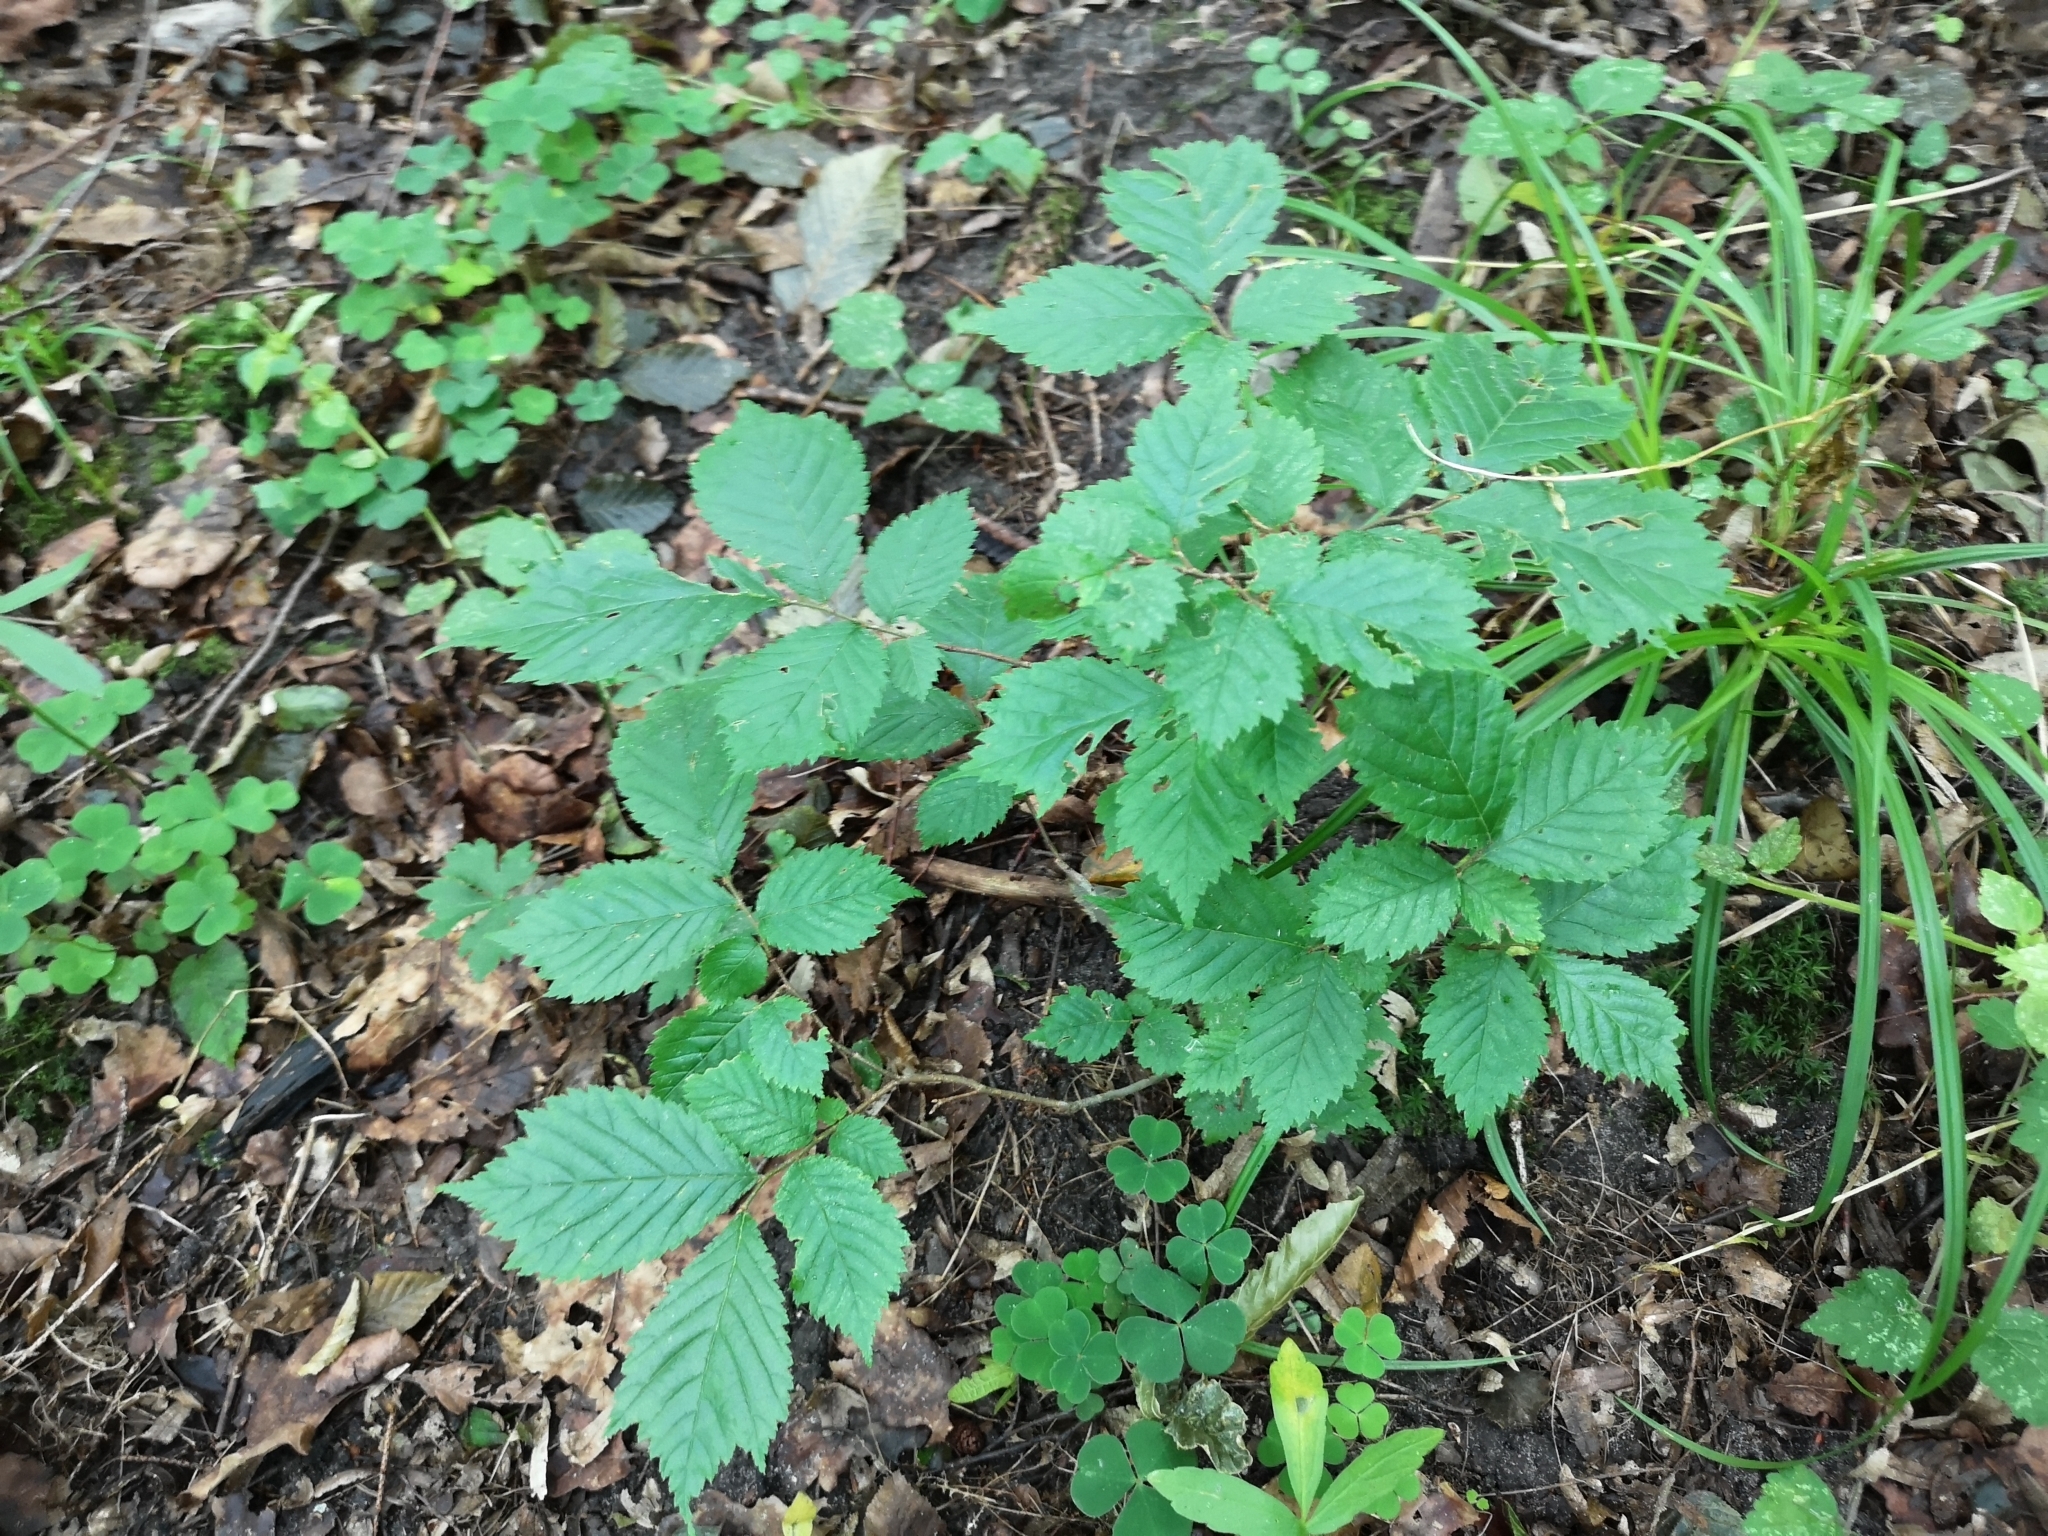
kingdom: Plantae
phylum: Tracheophyta
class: Magnoliopsida
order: Rosales
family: Ulmaceae
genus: Ulmus
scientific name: Ulmus minor
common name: Small-leaved elm
